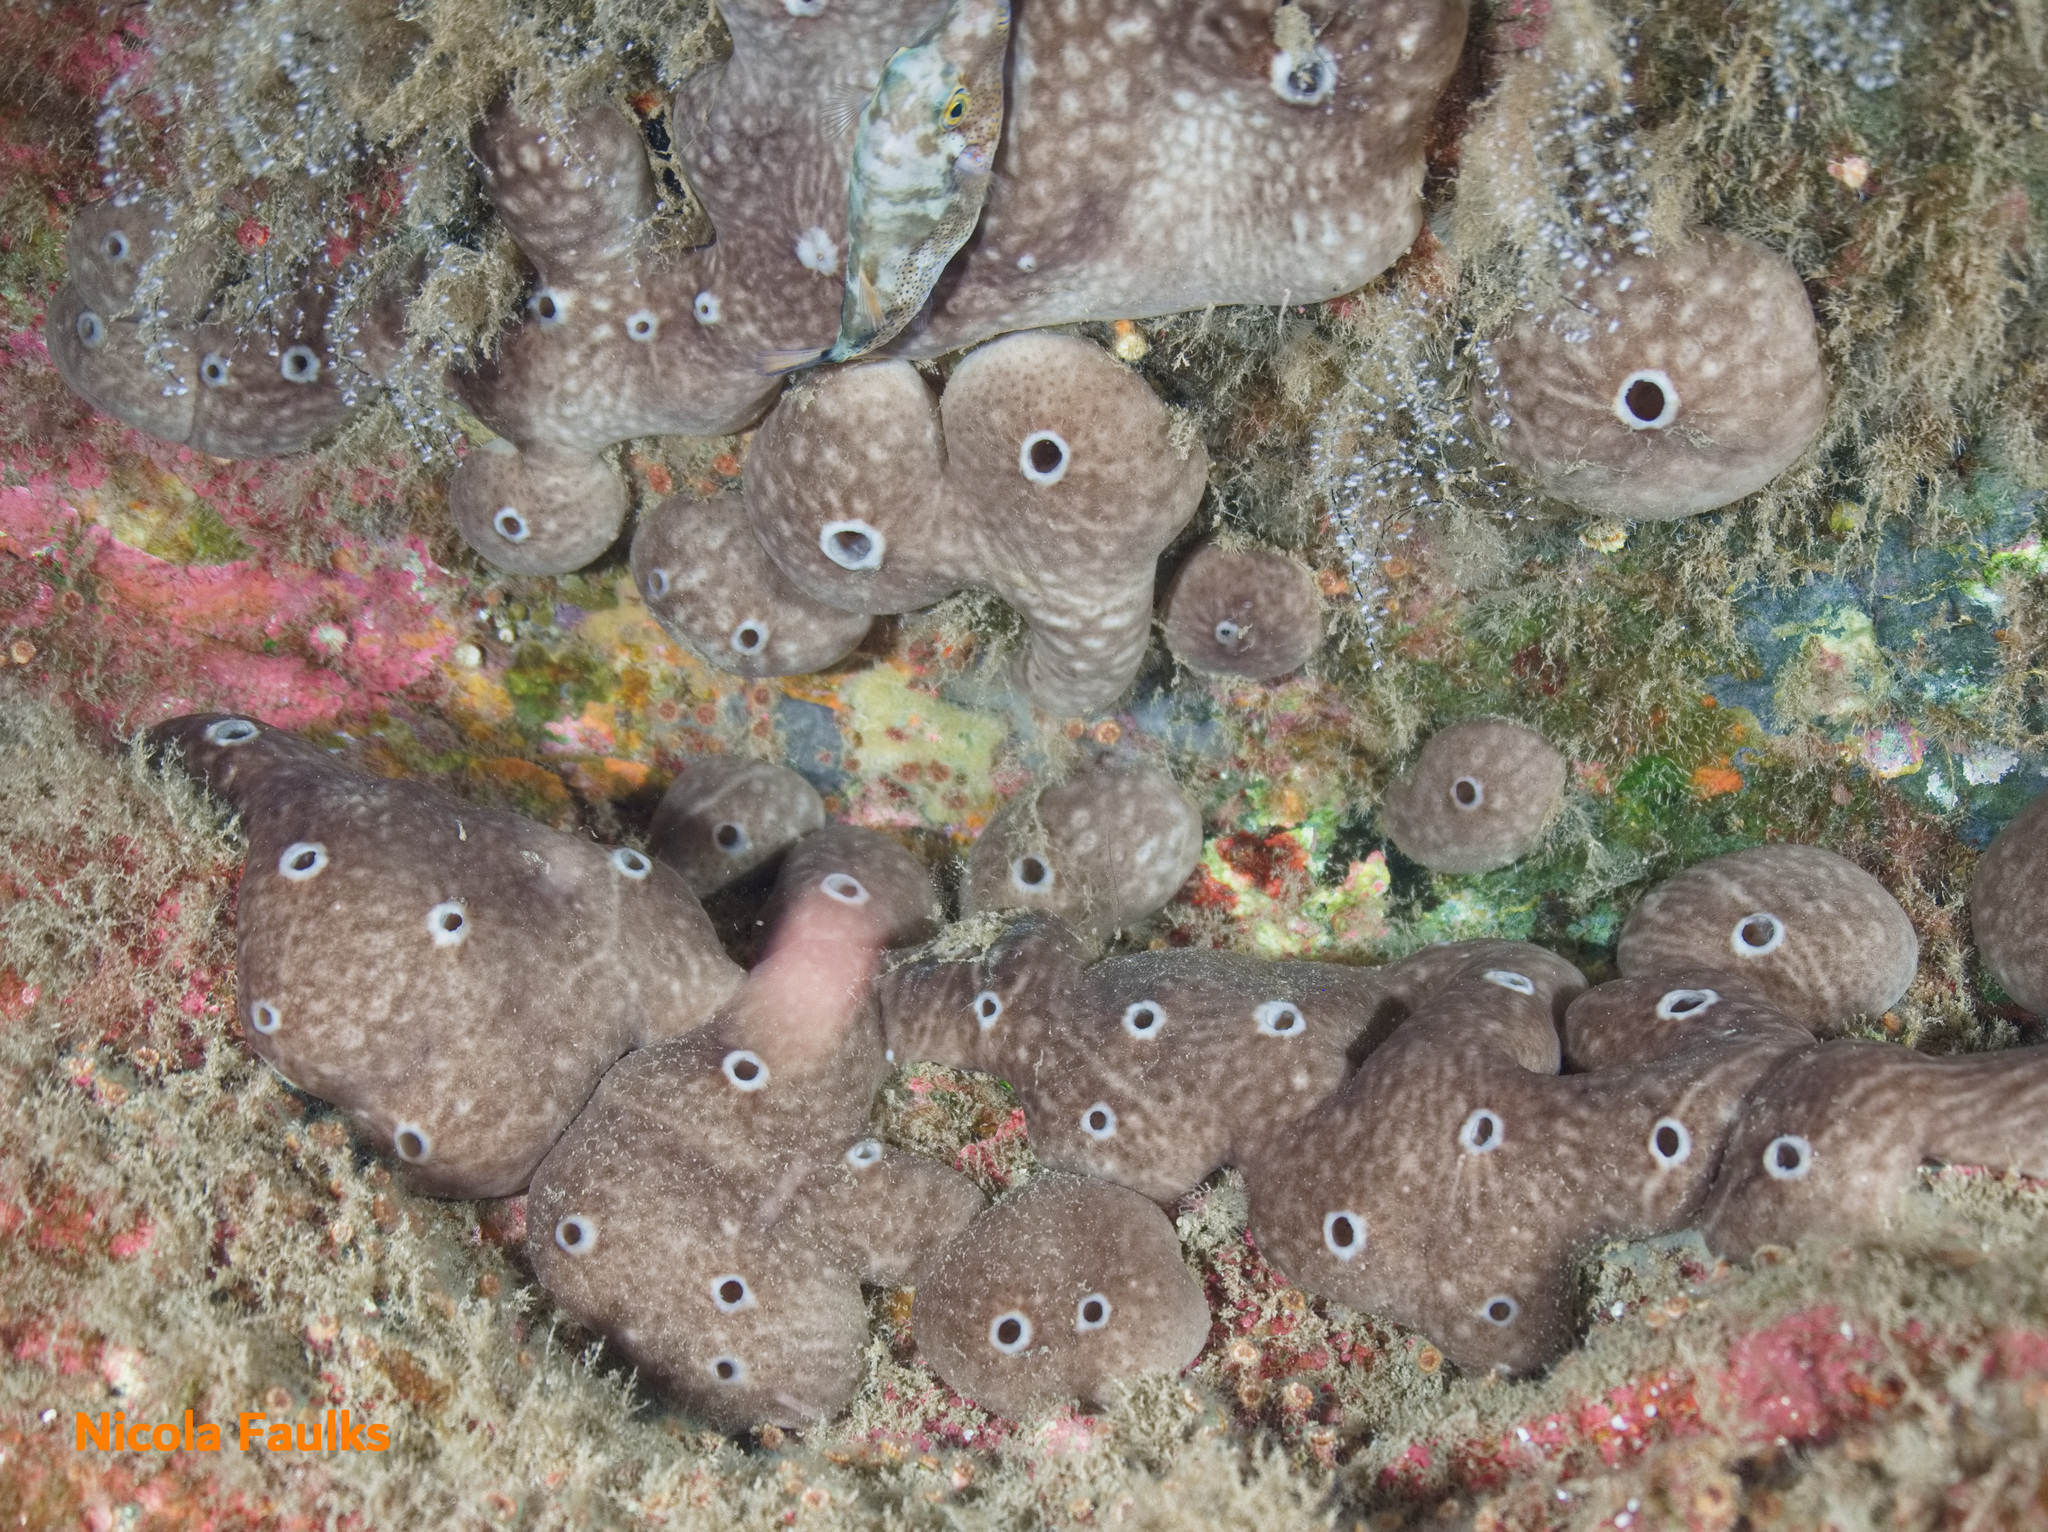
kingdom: Animalia
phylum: Porifera
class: Demospongiae
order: Chondrosiida
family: Chondrosiidae
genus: Chondrosia
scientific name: Chondrosia reniformis
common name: Chicken liver sponge
